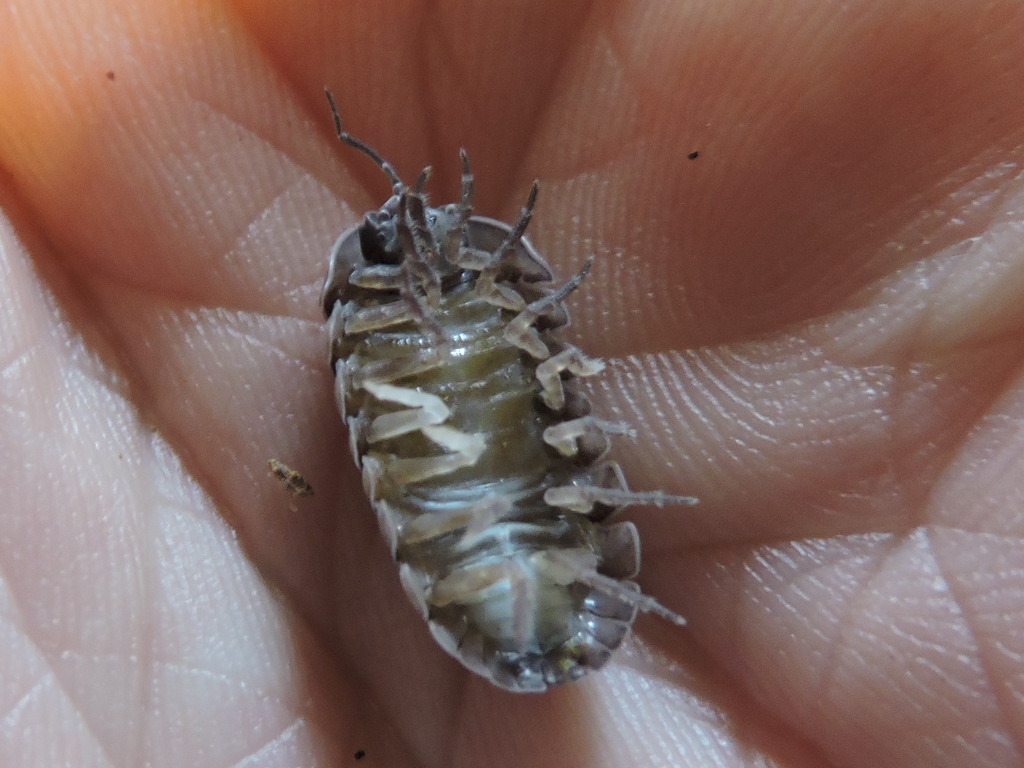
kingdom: Animalia
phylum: Arthropoda
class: Malacostraca
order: Isopoda
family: Armadillidiidae
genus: Armadillidium
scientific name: Armadillidium vulgare
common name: Common pill woodlouse
